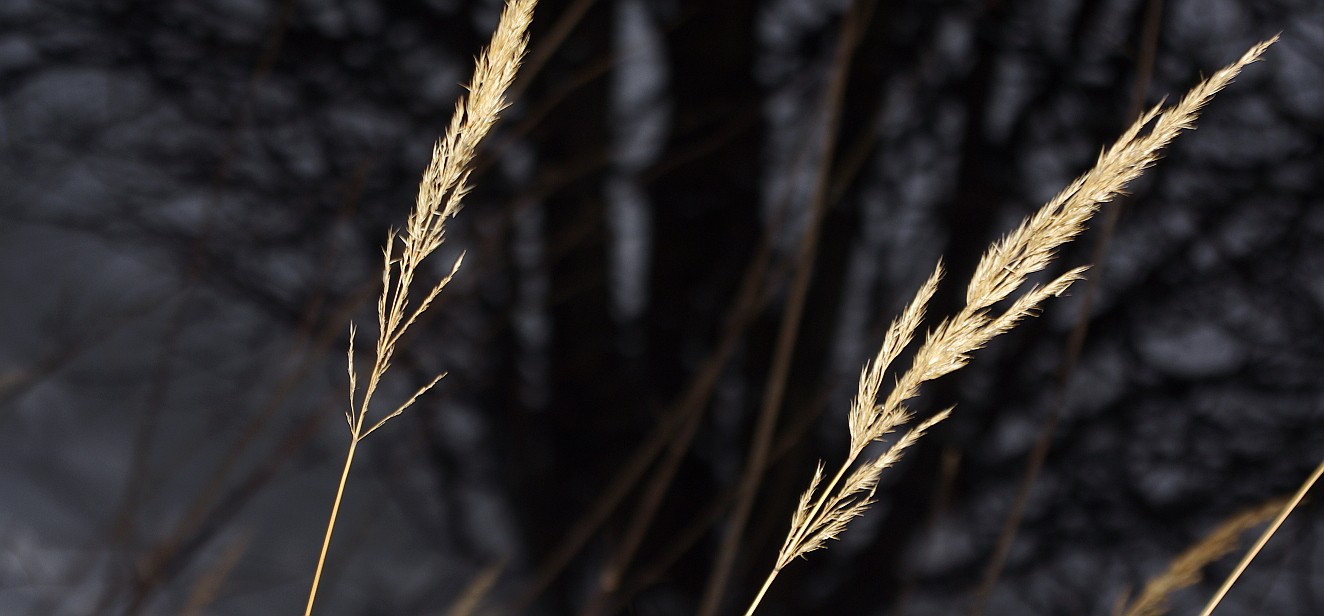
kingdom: Plantae
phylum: Tracheophyta
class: Liliopsida
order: Poales
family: Poaceae
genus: Calamagrostis
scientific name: Calamagrostis epigejos
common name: Wood small-reed
